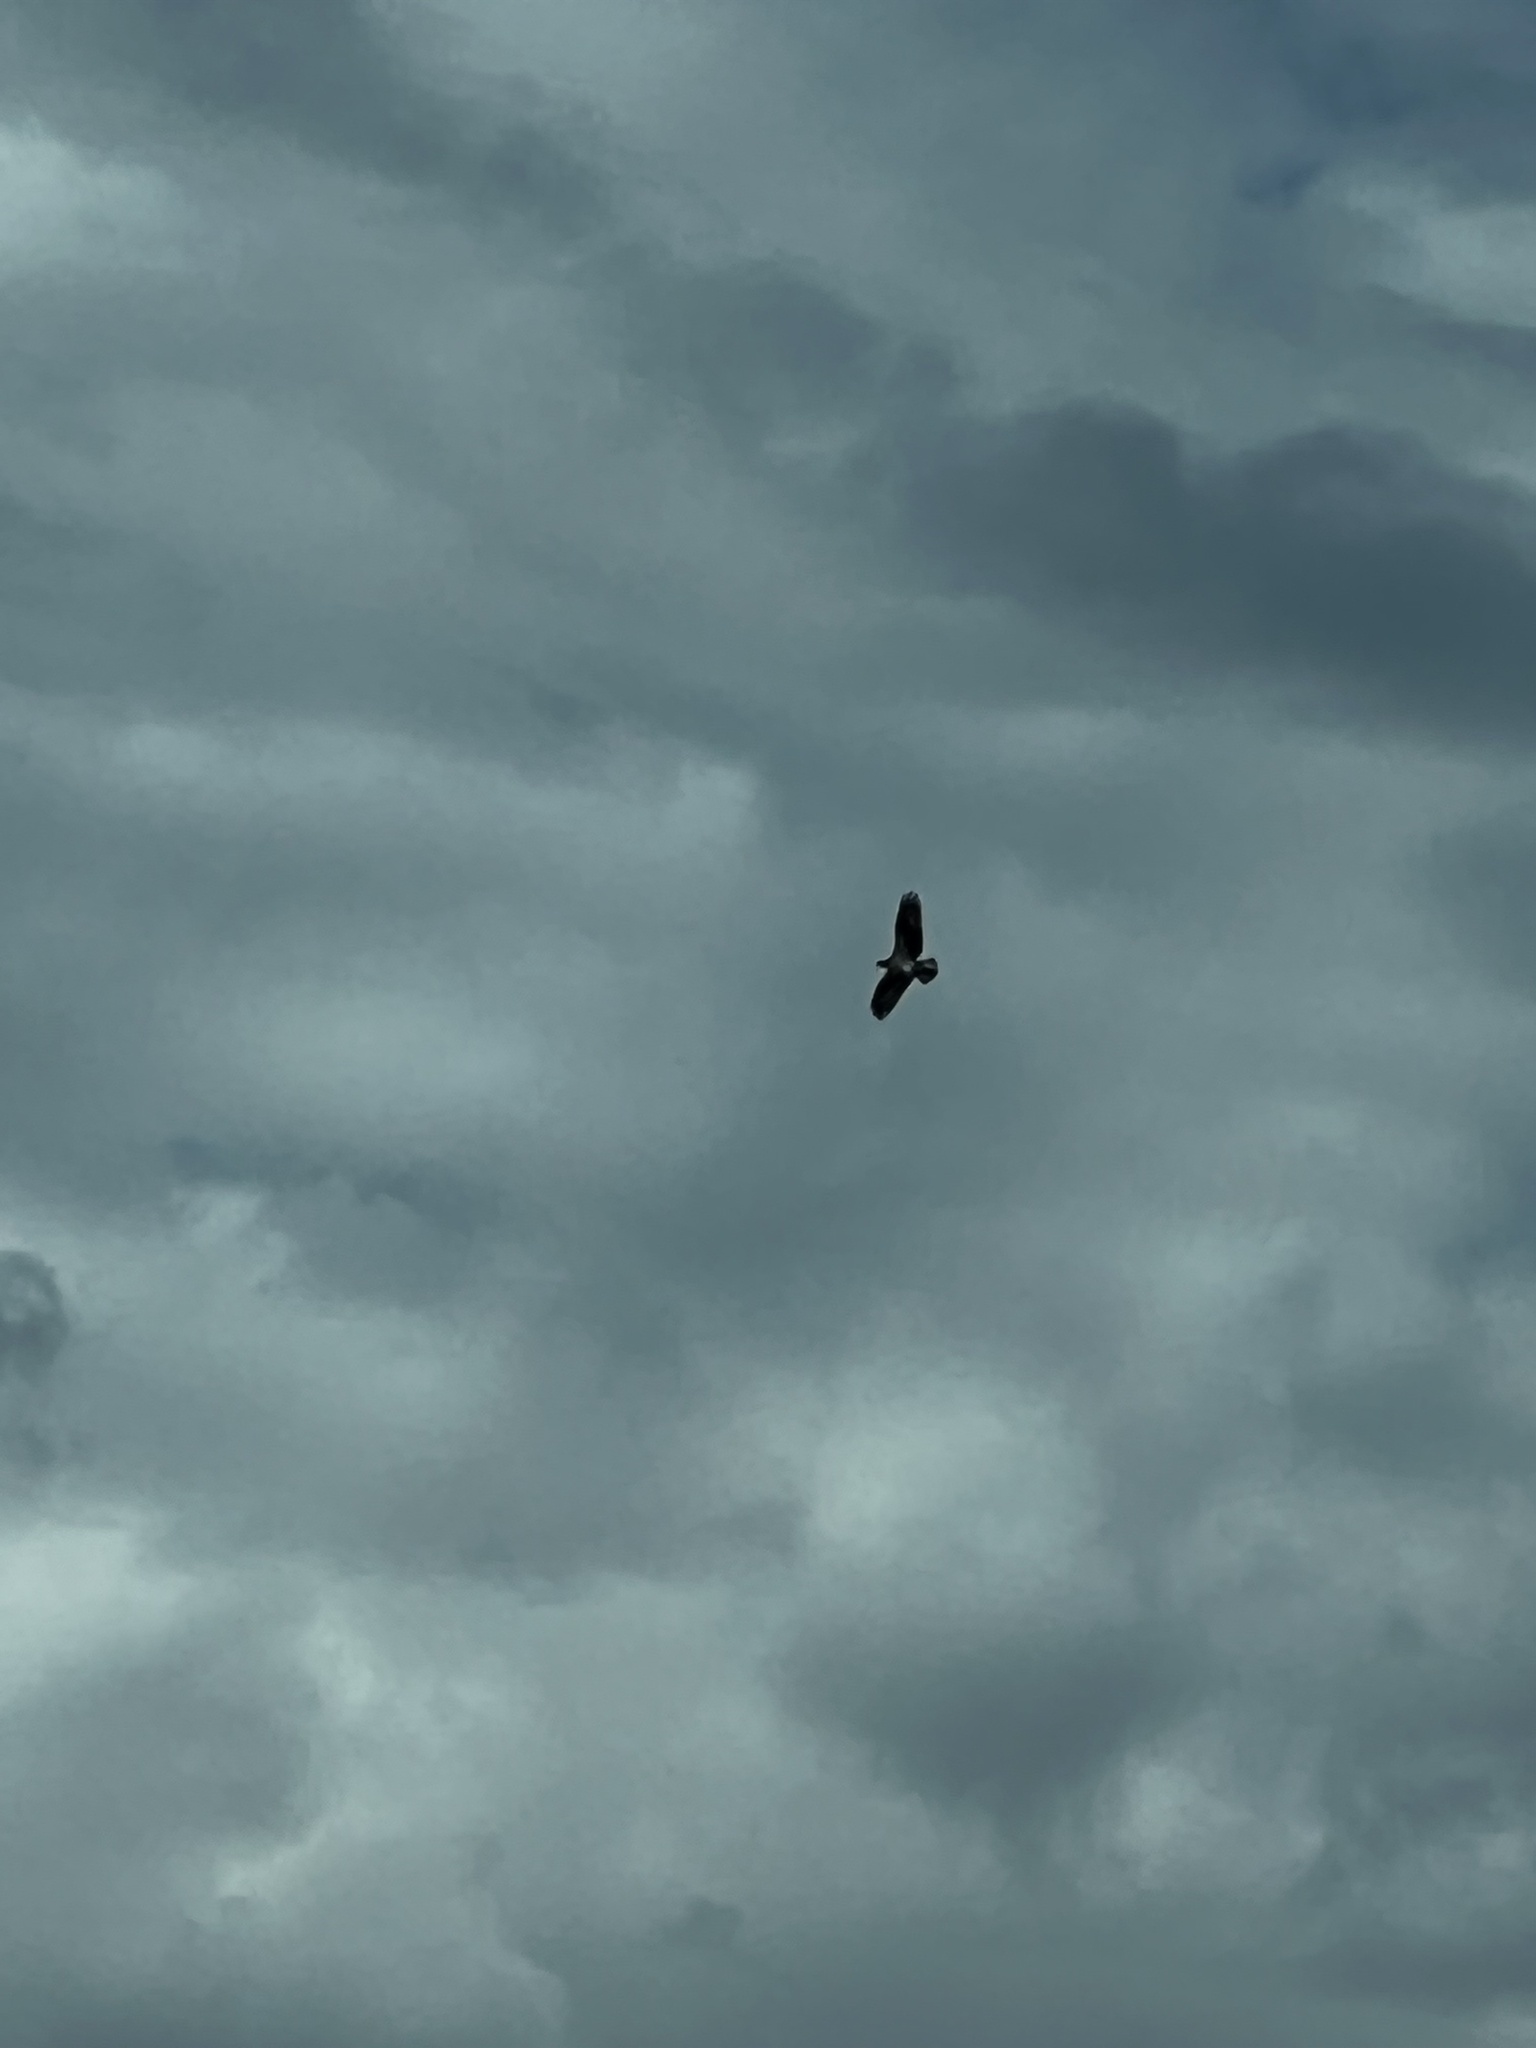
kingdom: Animalia
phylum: Chordata
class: Aves
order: Accipitriformes
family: Pandionidae
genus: Pandion
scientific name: Pandion haliaetus
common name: Osprey
